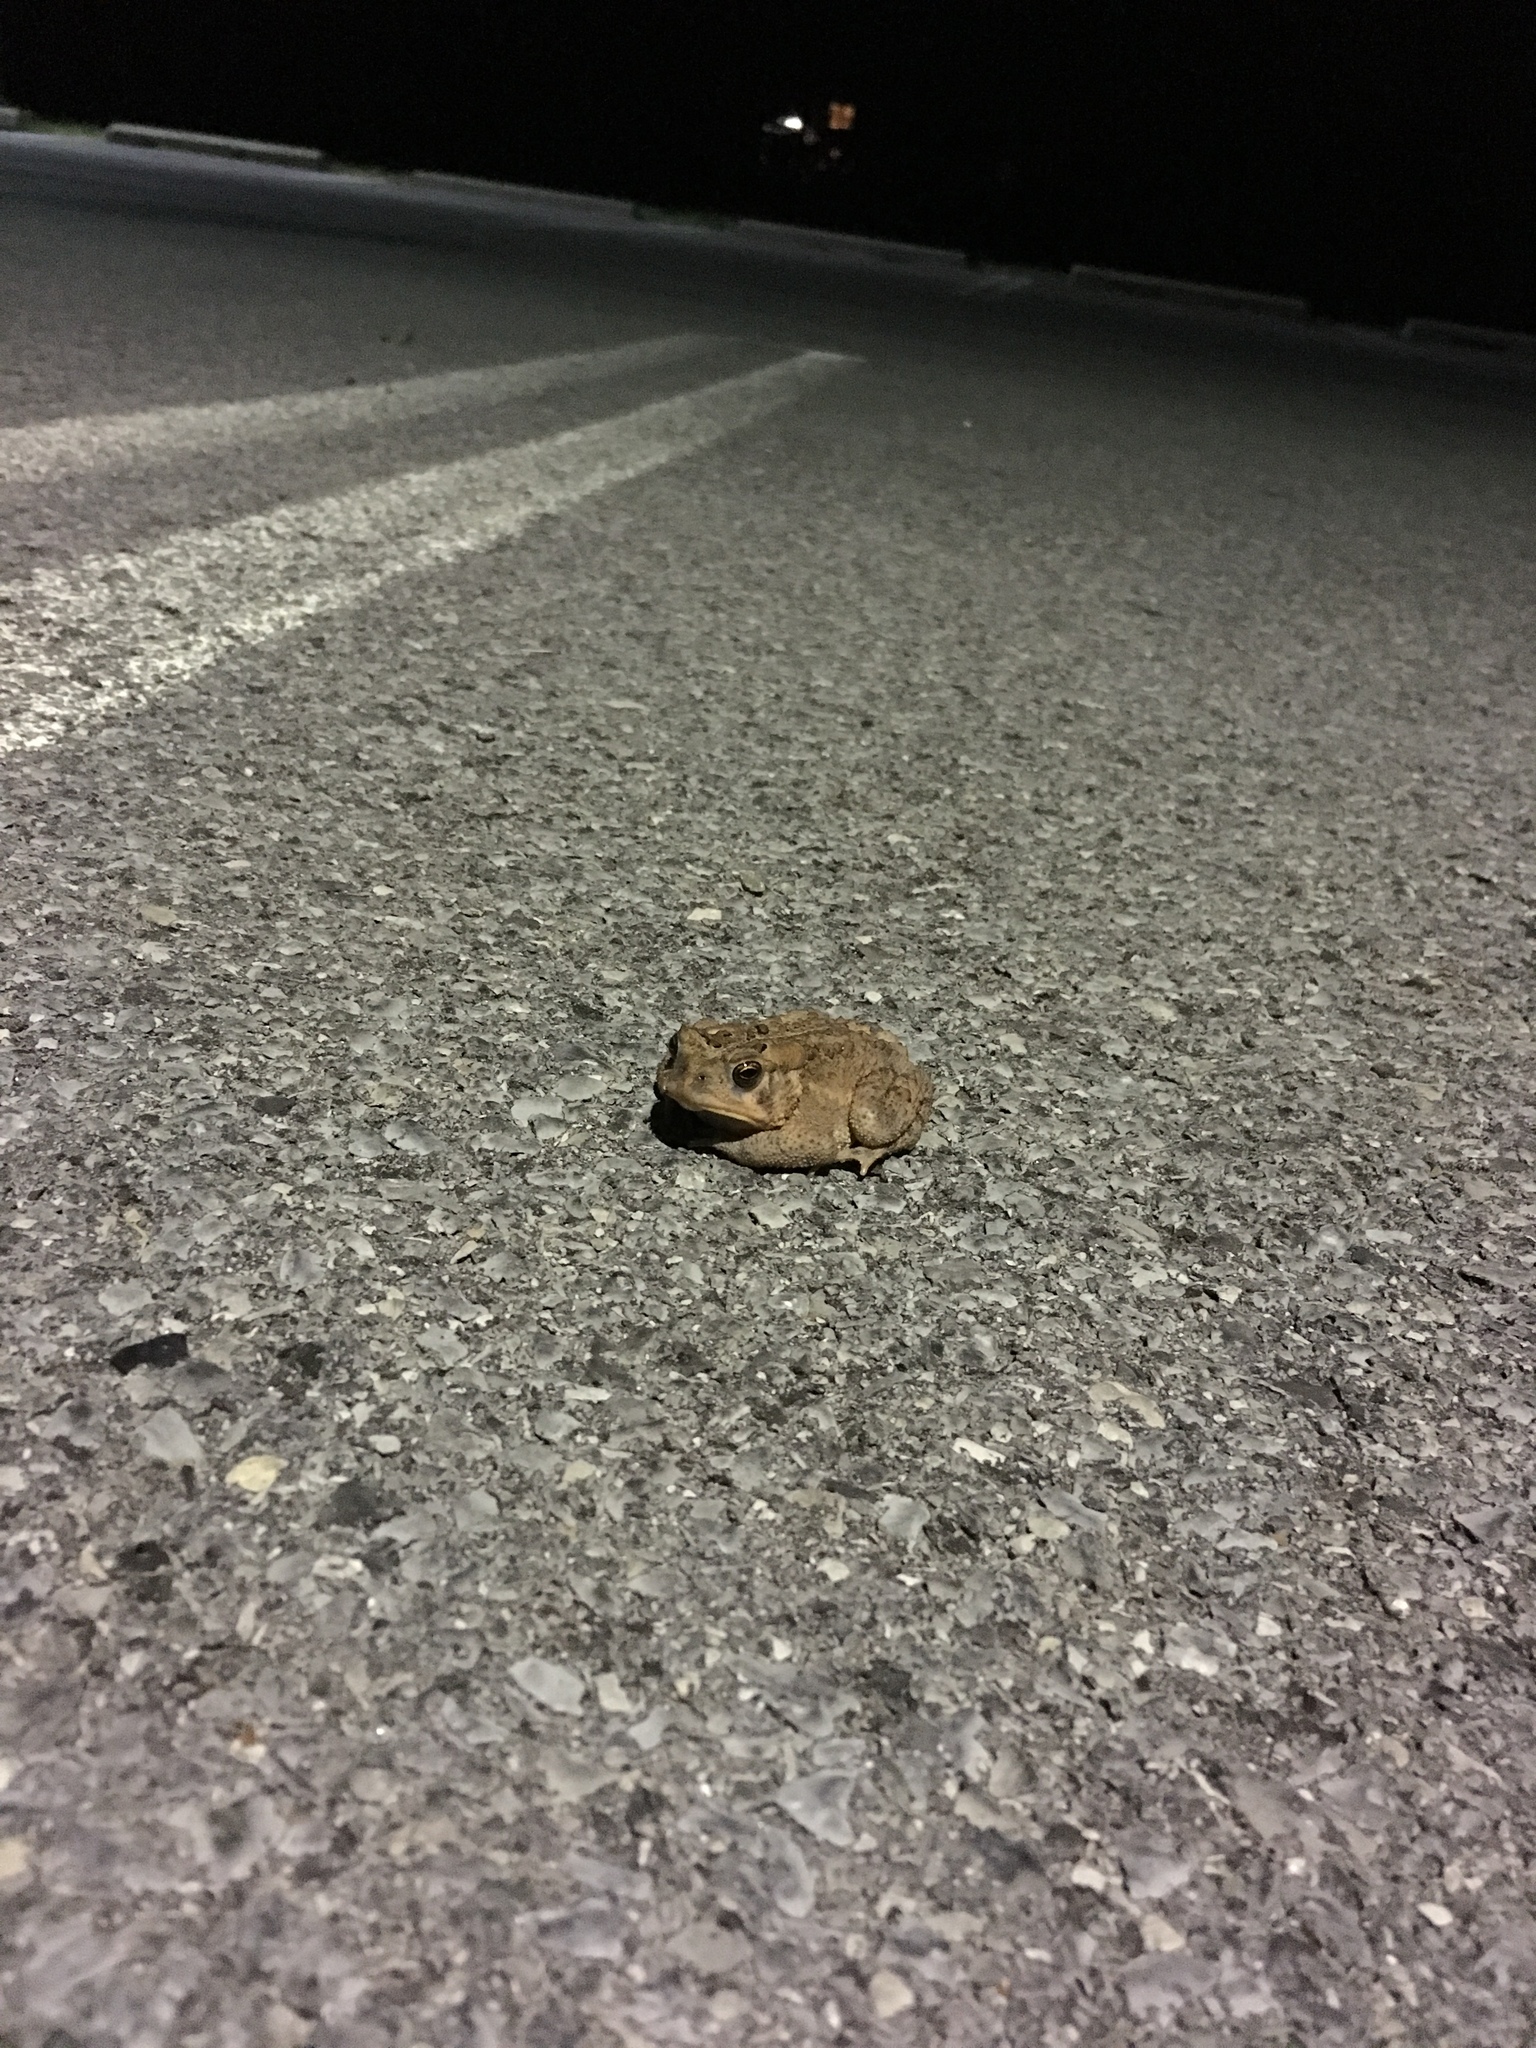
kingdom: Animalia
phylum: Chordata
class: Amphibia
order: Anura
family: Bufonidae
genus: Anaxyrus
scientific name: Anaxyrus americanus
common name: American toad
